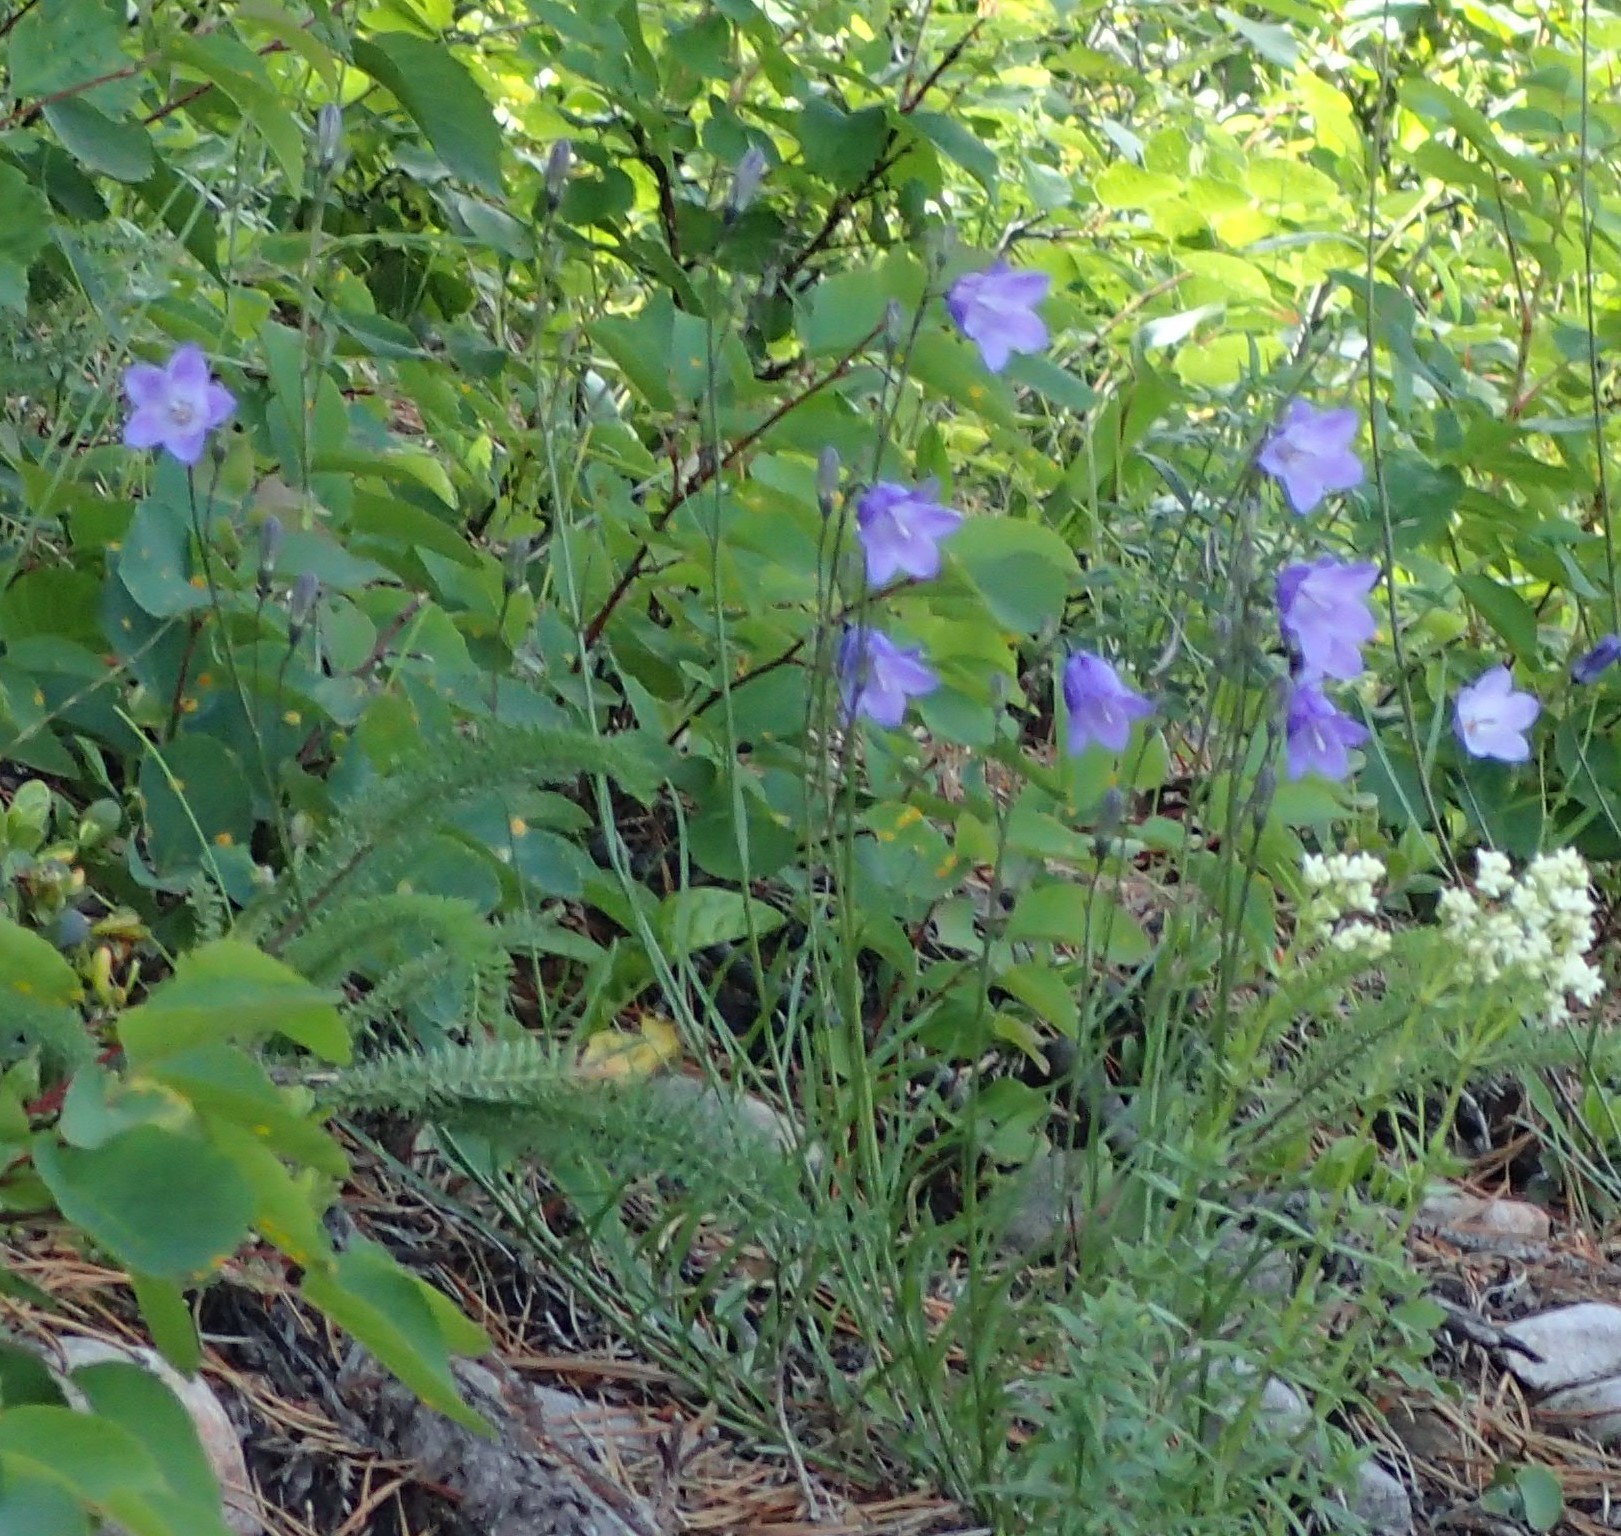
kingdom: Plantae
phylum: Tracheophyta
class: Magnoliopsida
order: Asterales
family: Campanulaceae
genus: Campanula
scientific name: Campanula alaskana
